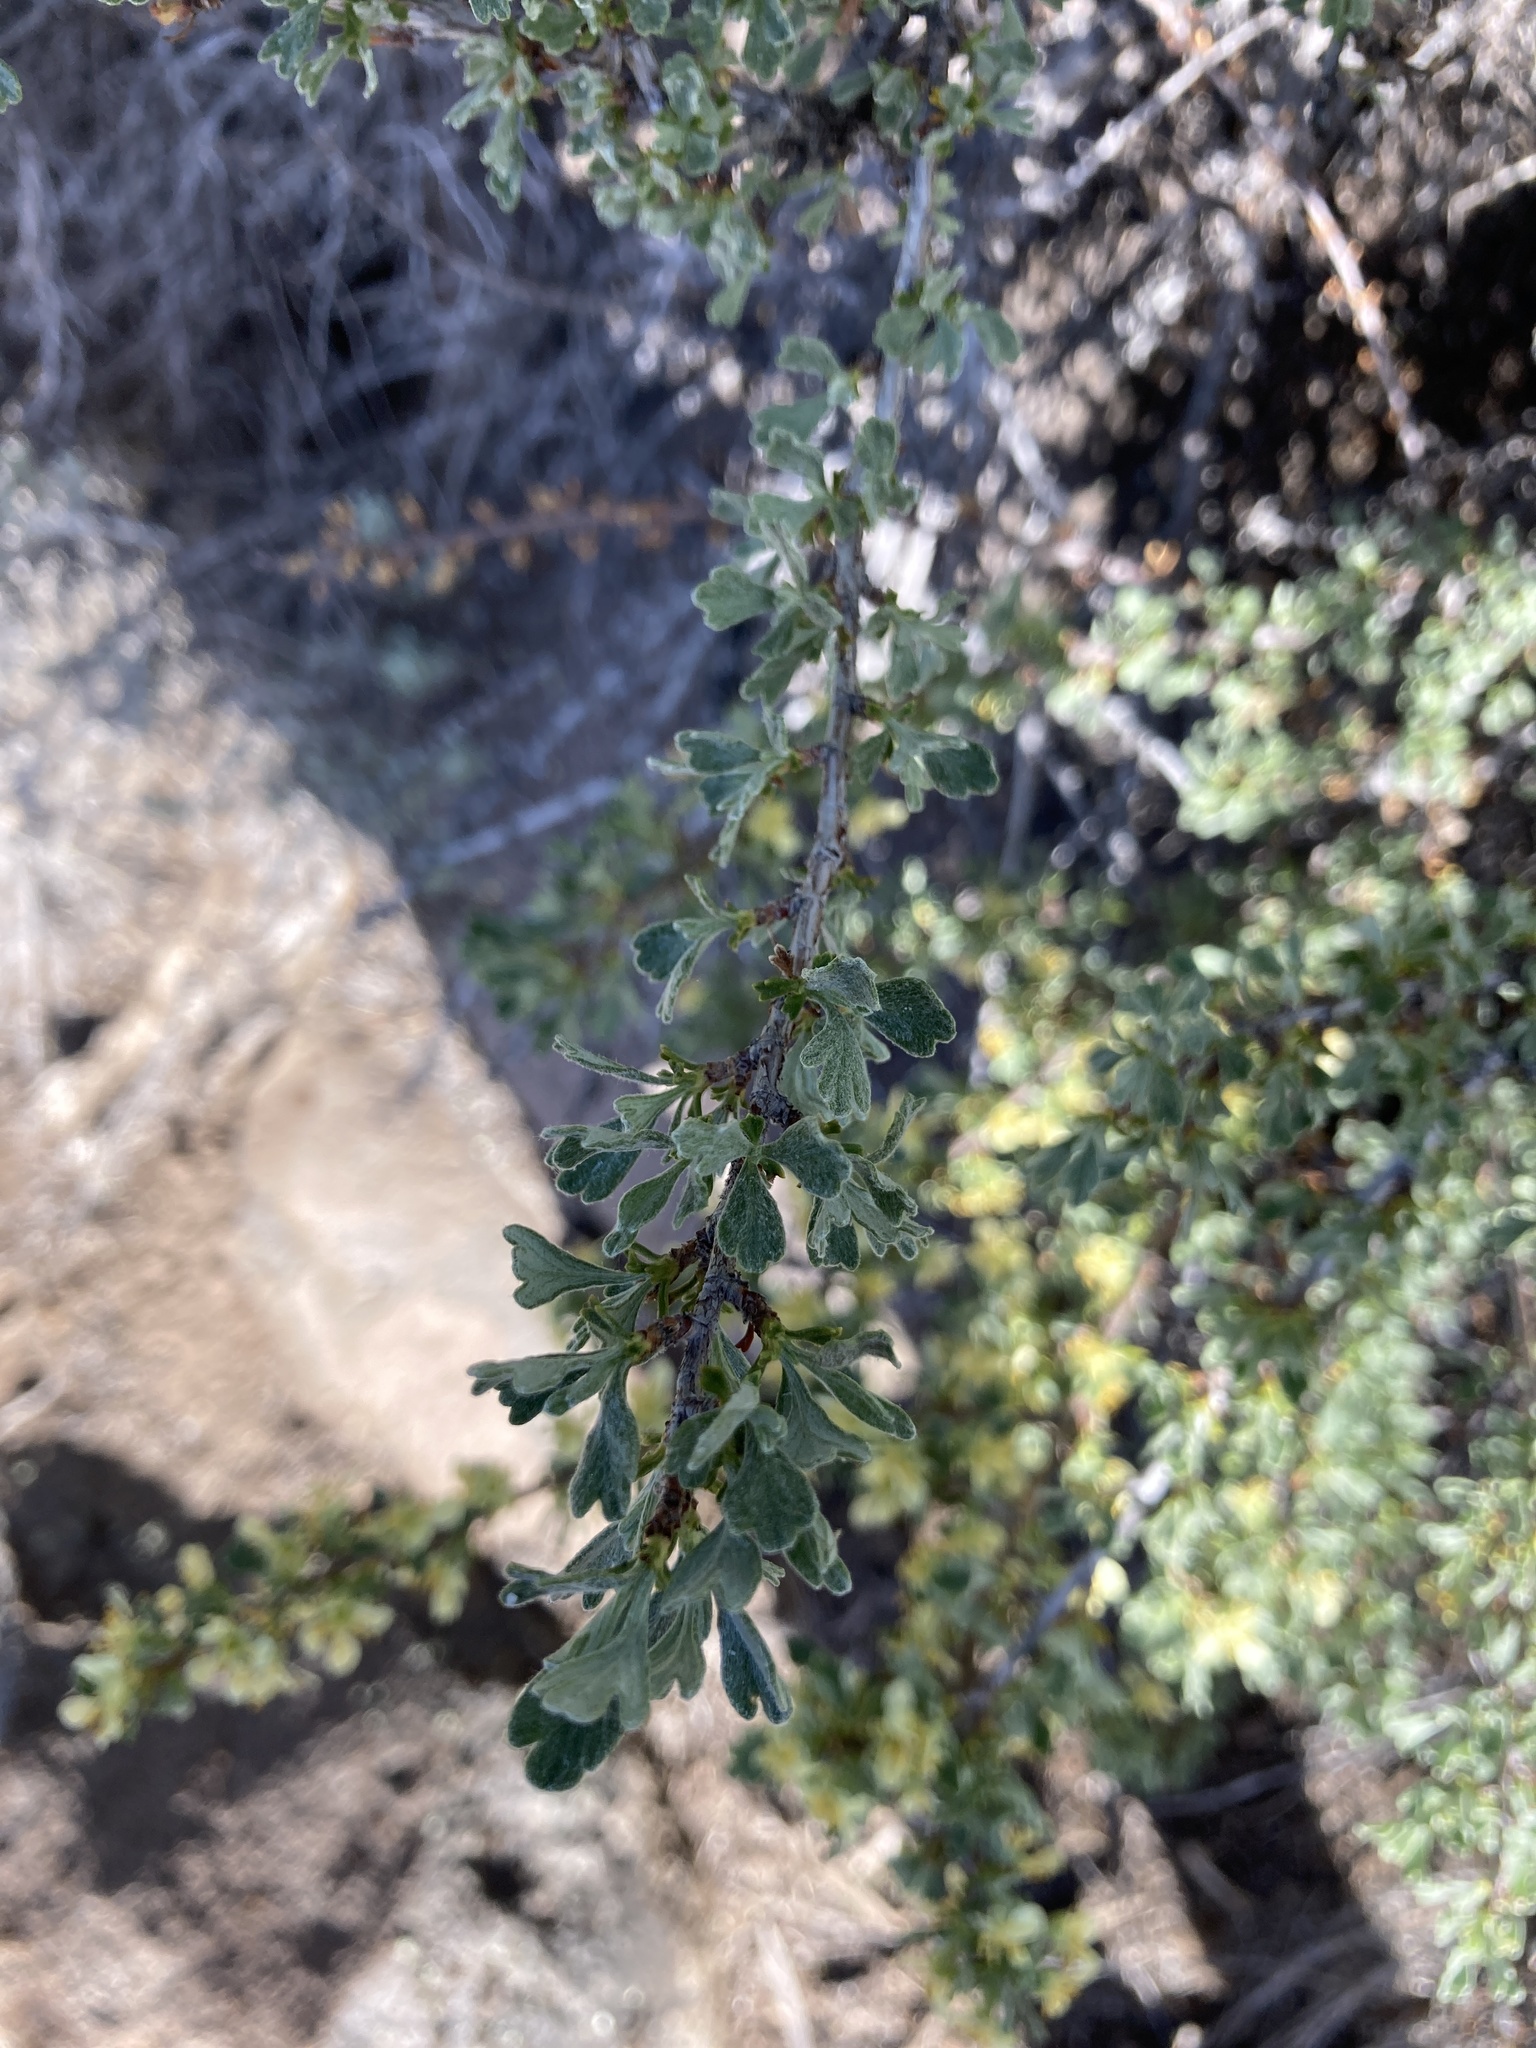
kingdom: Plantae
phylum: Tracheophyta
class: Magnoliopsida
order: Rosales
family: Rosaceae
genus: Purshia
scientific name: Purshia tridentata
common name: Antelope bitterbrush
